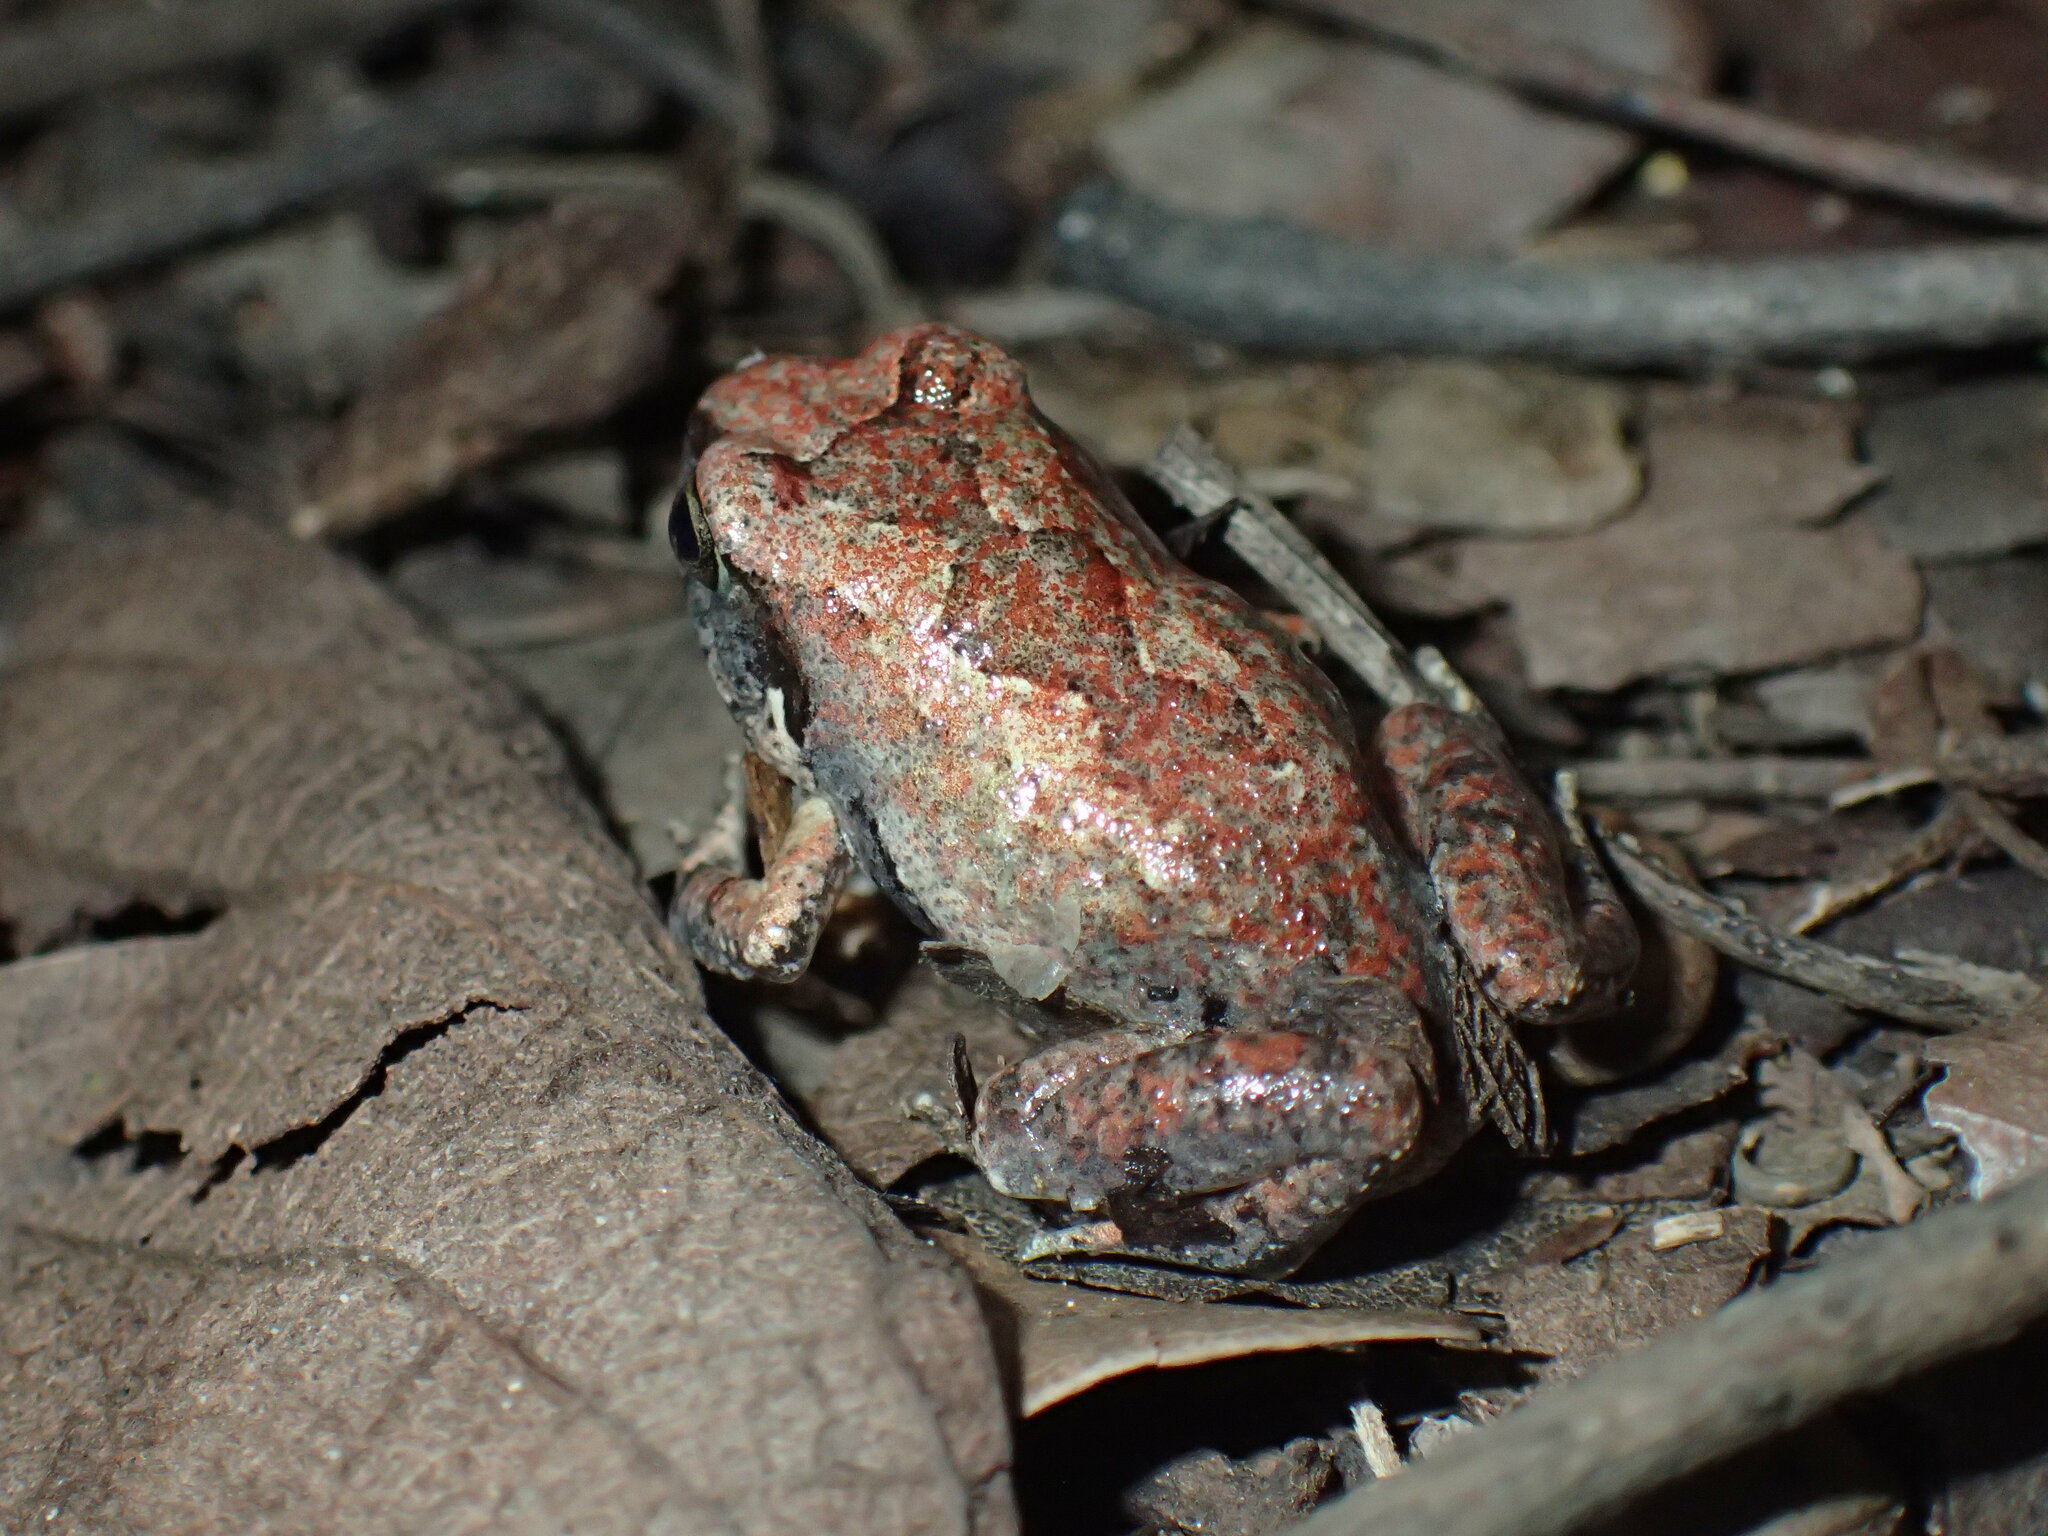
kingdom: Animalia
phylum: Chordata
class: Amphibia
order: Anura
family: Arthroleptidae
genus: Arthroleptis
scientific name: Arthroleptis stenodactylus
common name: Dune squeaker
